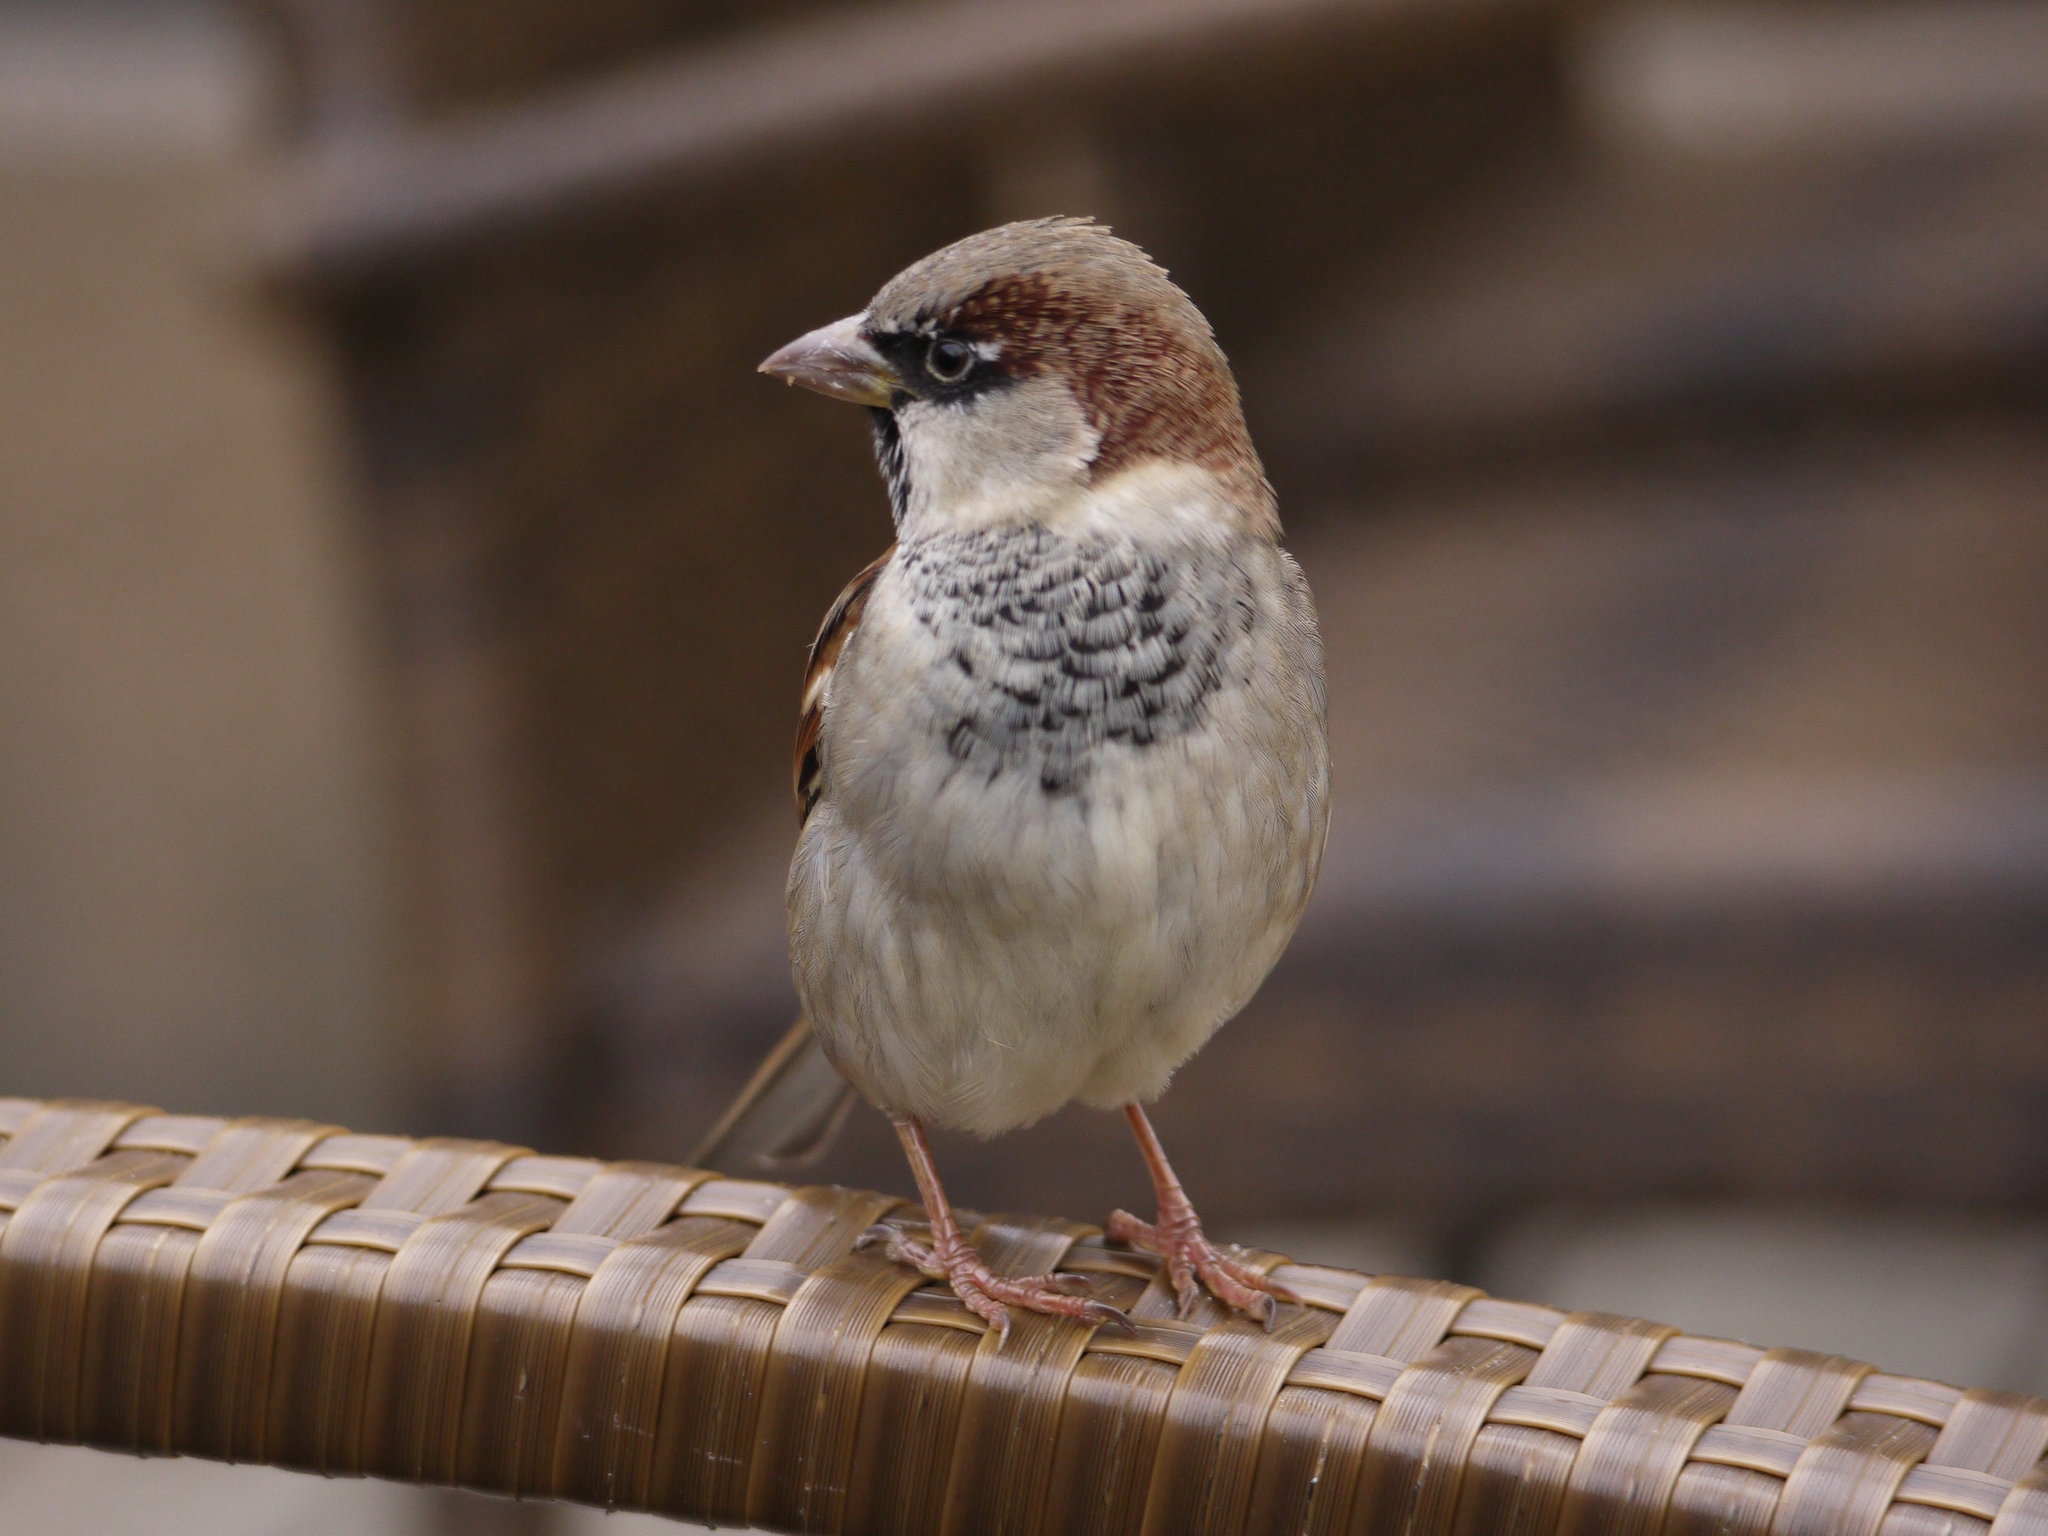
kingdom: Animalia
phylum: Chordata
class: Aves
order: Passeriformes
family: Passeridae
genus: Passer
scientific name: Passer domesticus
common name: House sparrow
